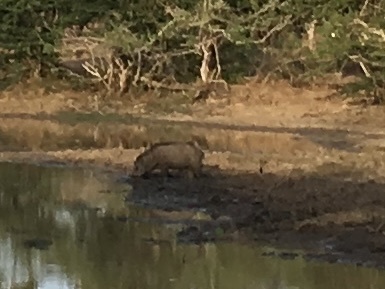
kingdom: Animalia
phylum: Chordata
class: Mammalia
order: Artiodactyla
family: Suidae
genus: Sus
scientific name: Sus scrofa
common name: Wild boar
